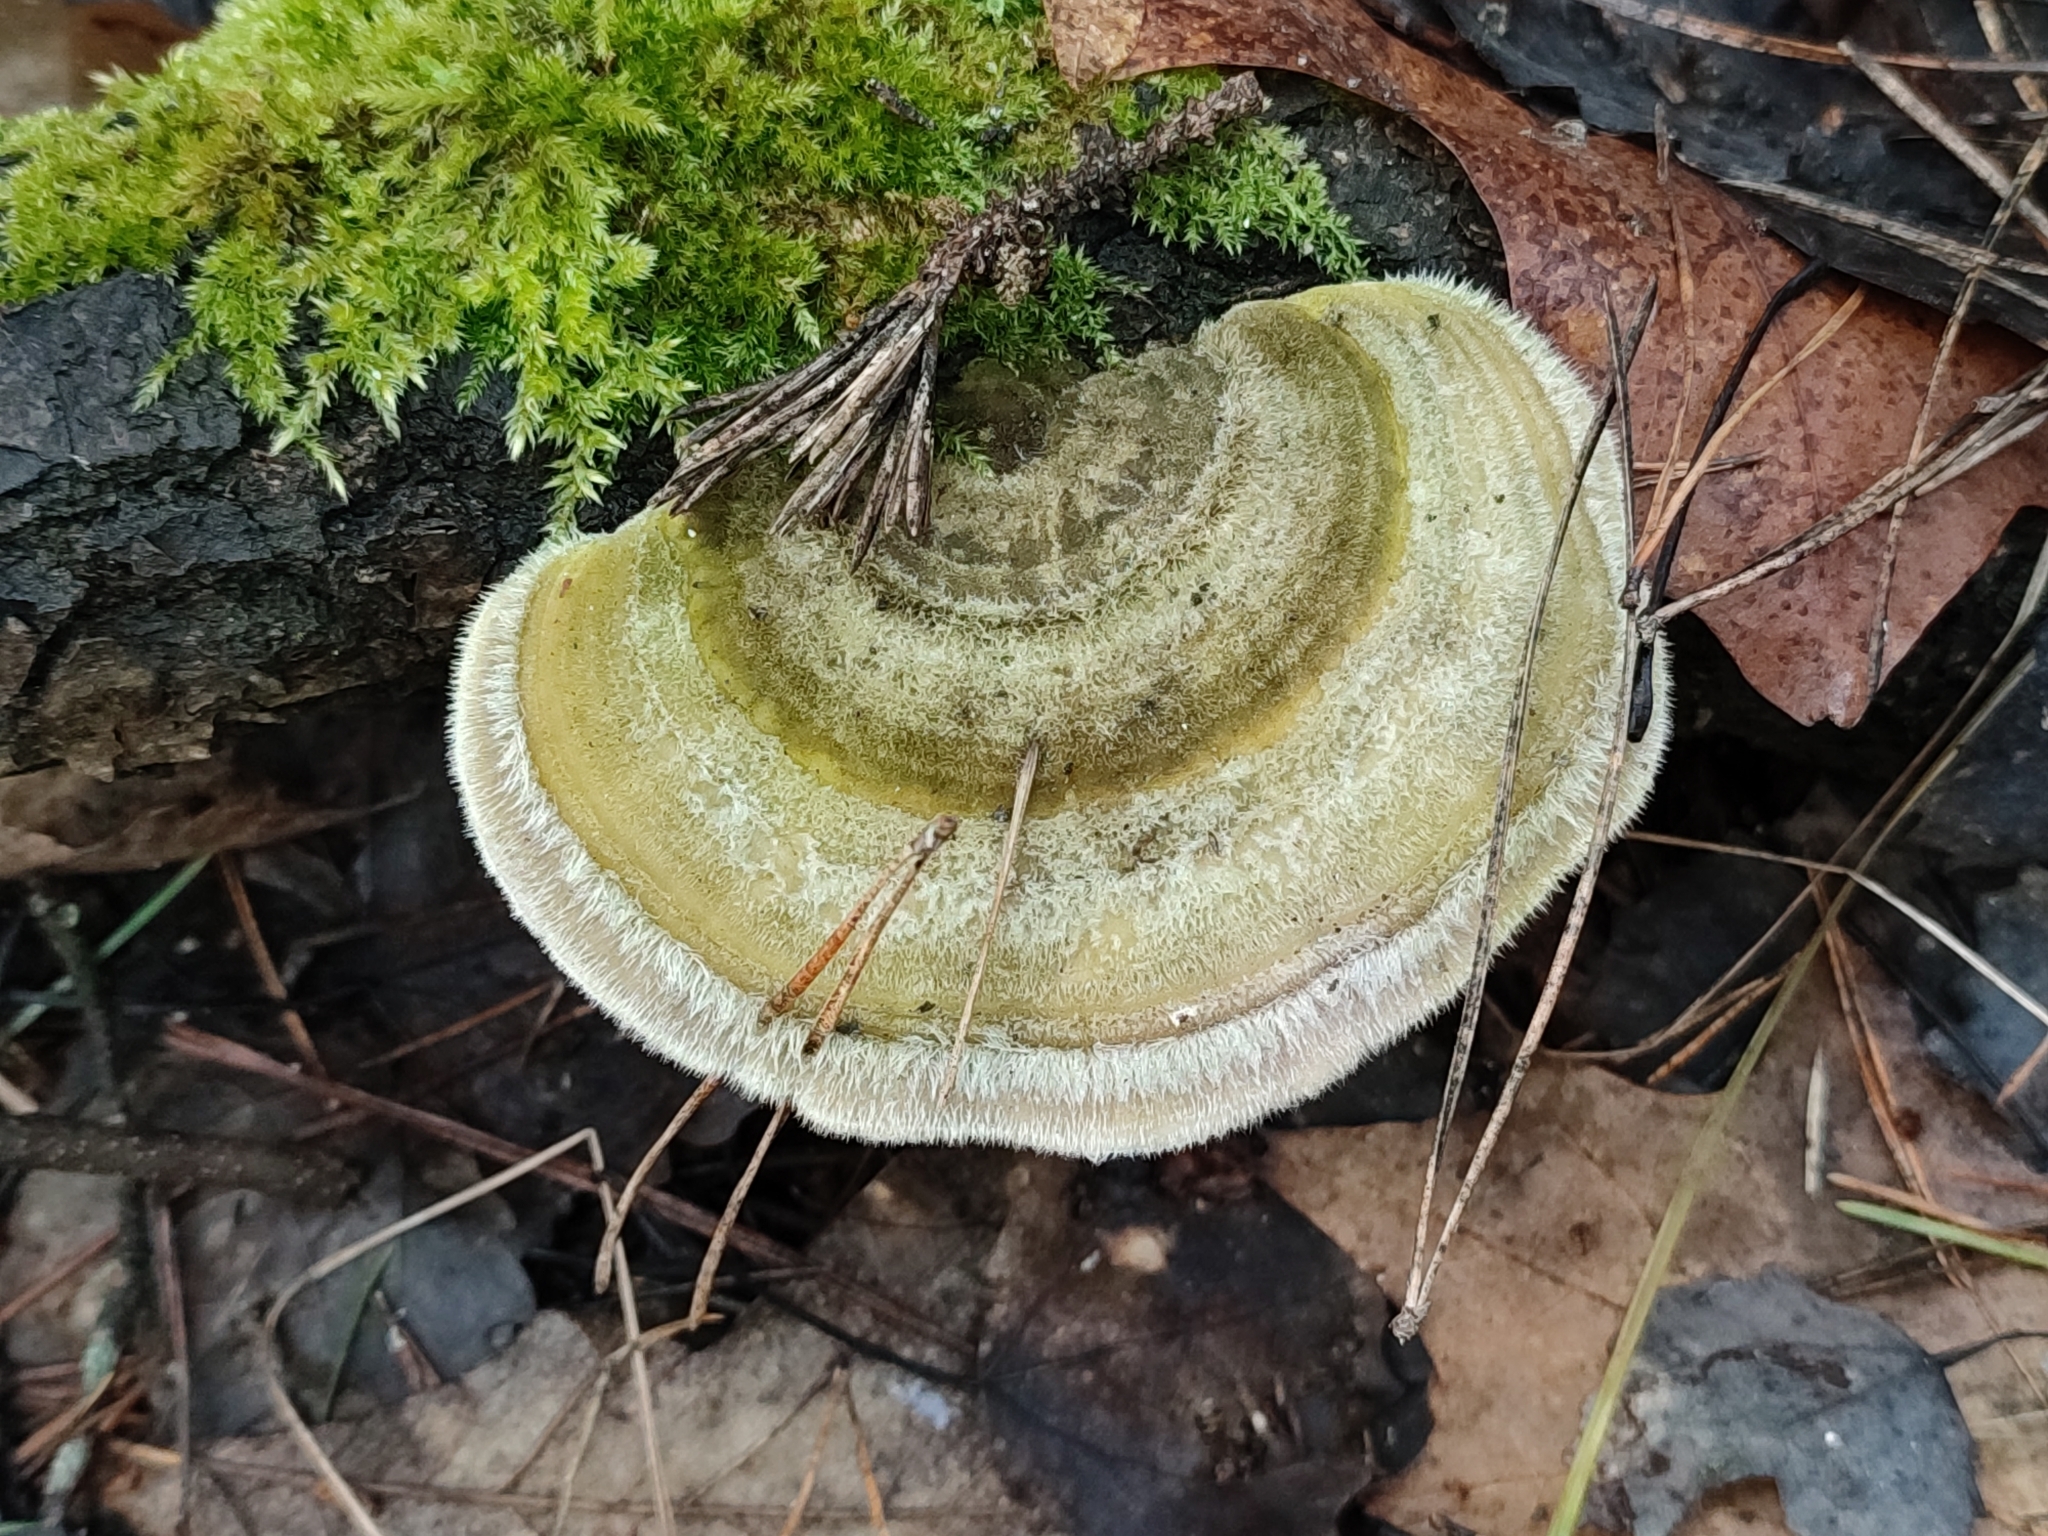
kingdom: Fungi
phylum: Basidiomycota
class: Agaricomycetes
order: Polyporales
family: Polyporaceae
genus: Trametes
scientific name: Trametes hirsuta
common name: Hairy bracket
